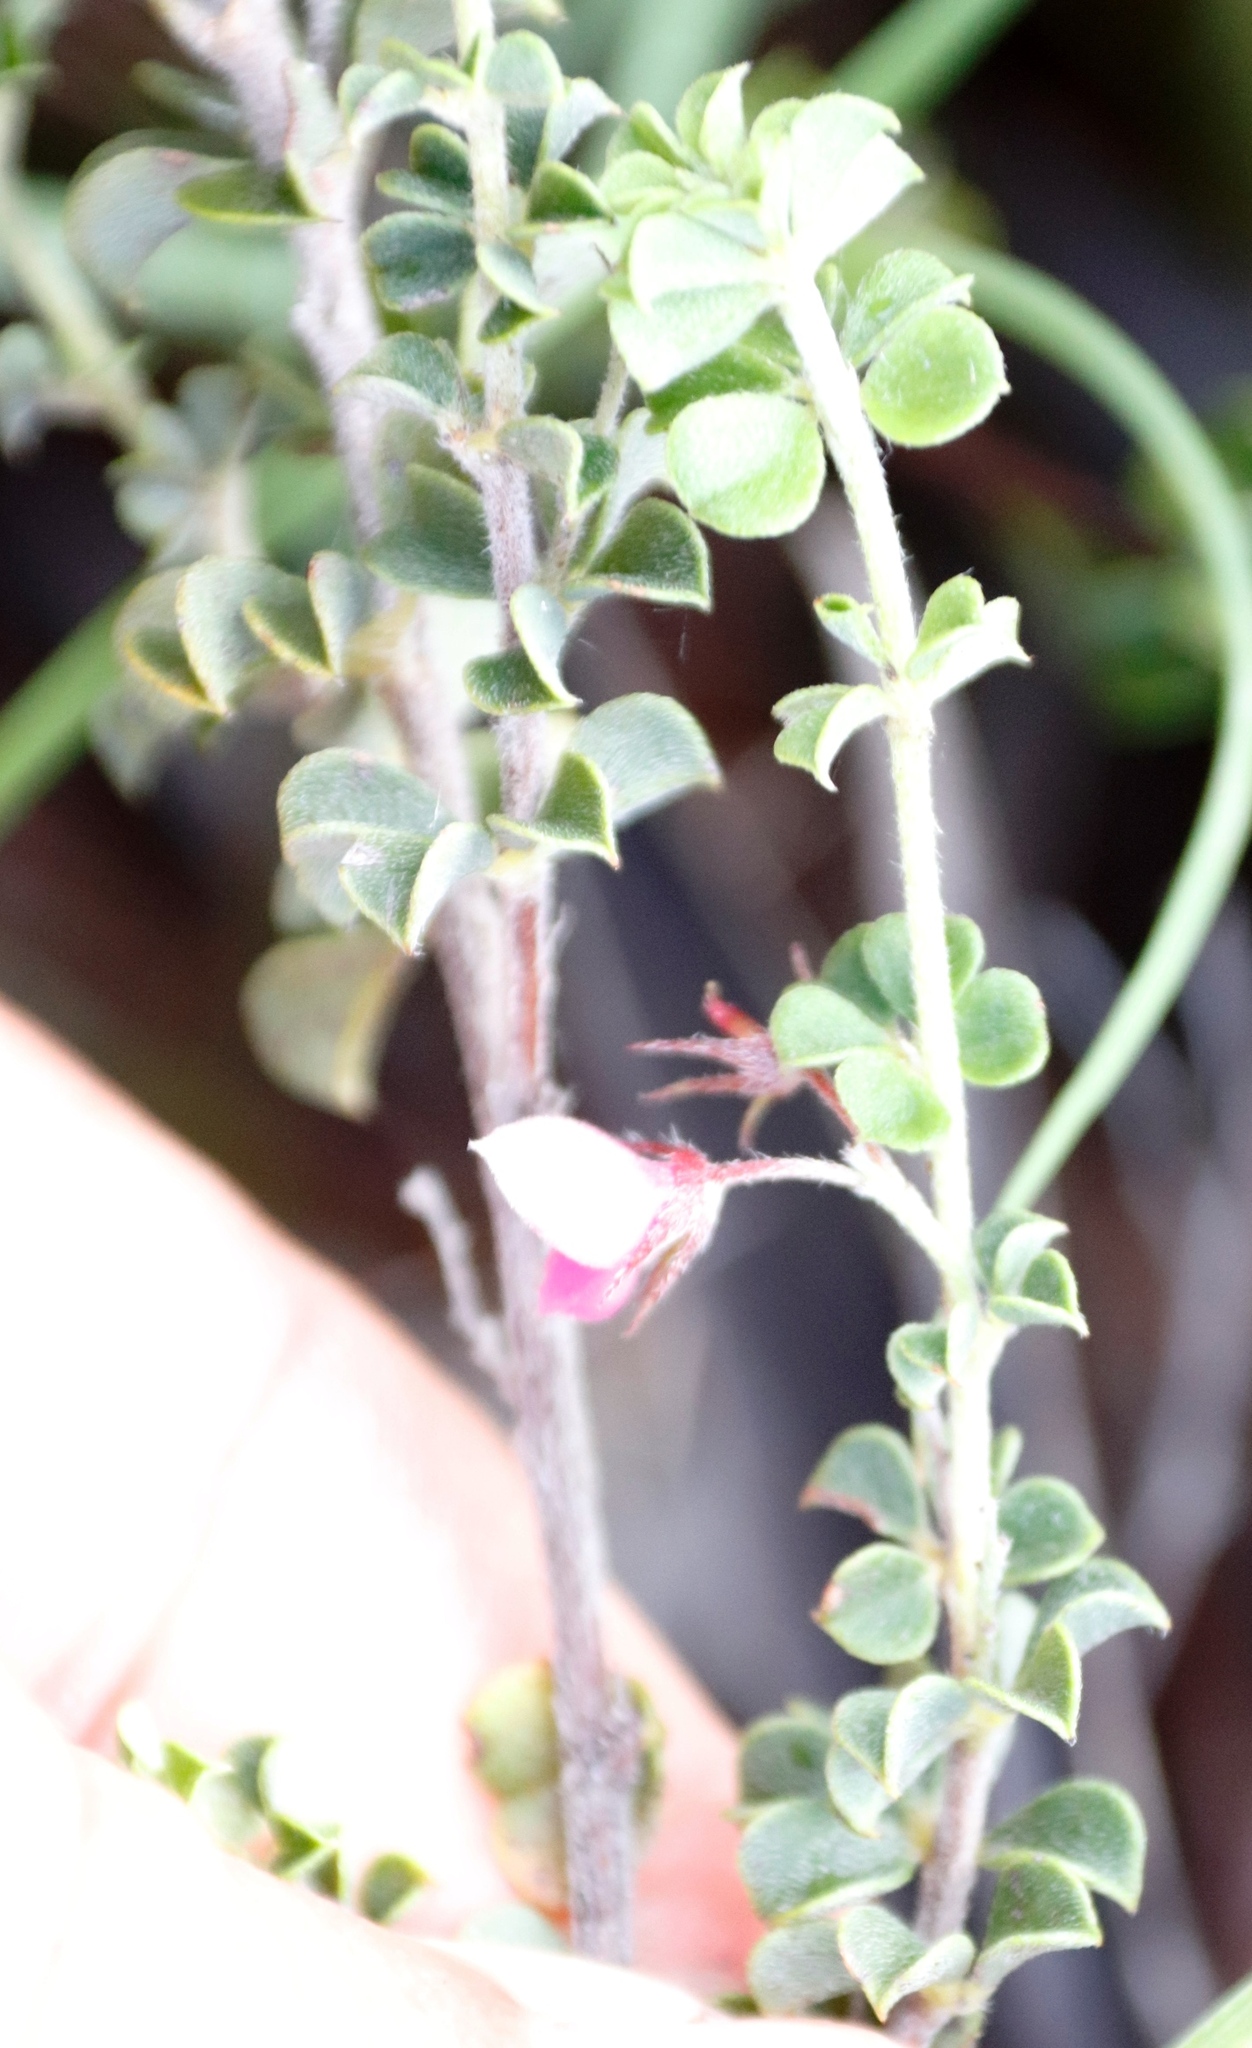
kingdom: Plantae
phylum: Tracheophyta
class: Magnoliopsida
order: Fabales
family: Fabaceae
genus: Indigofera
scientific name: Indigofera candolleana
